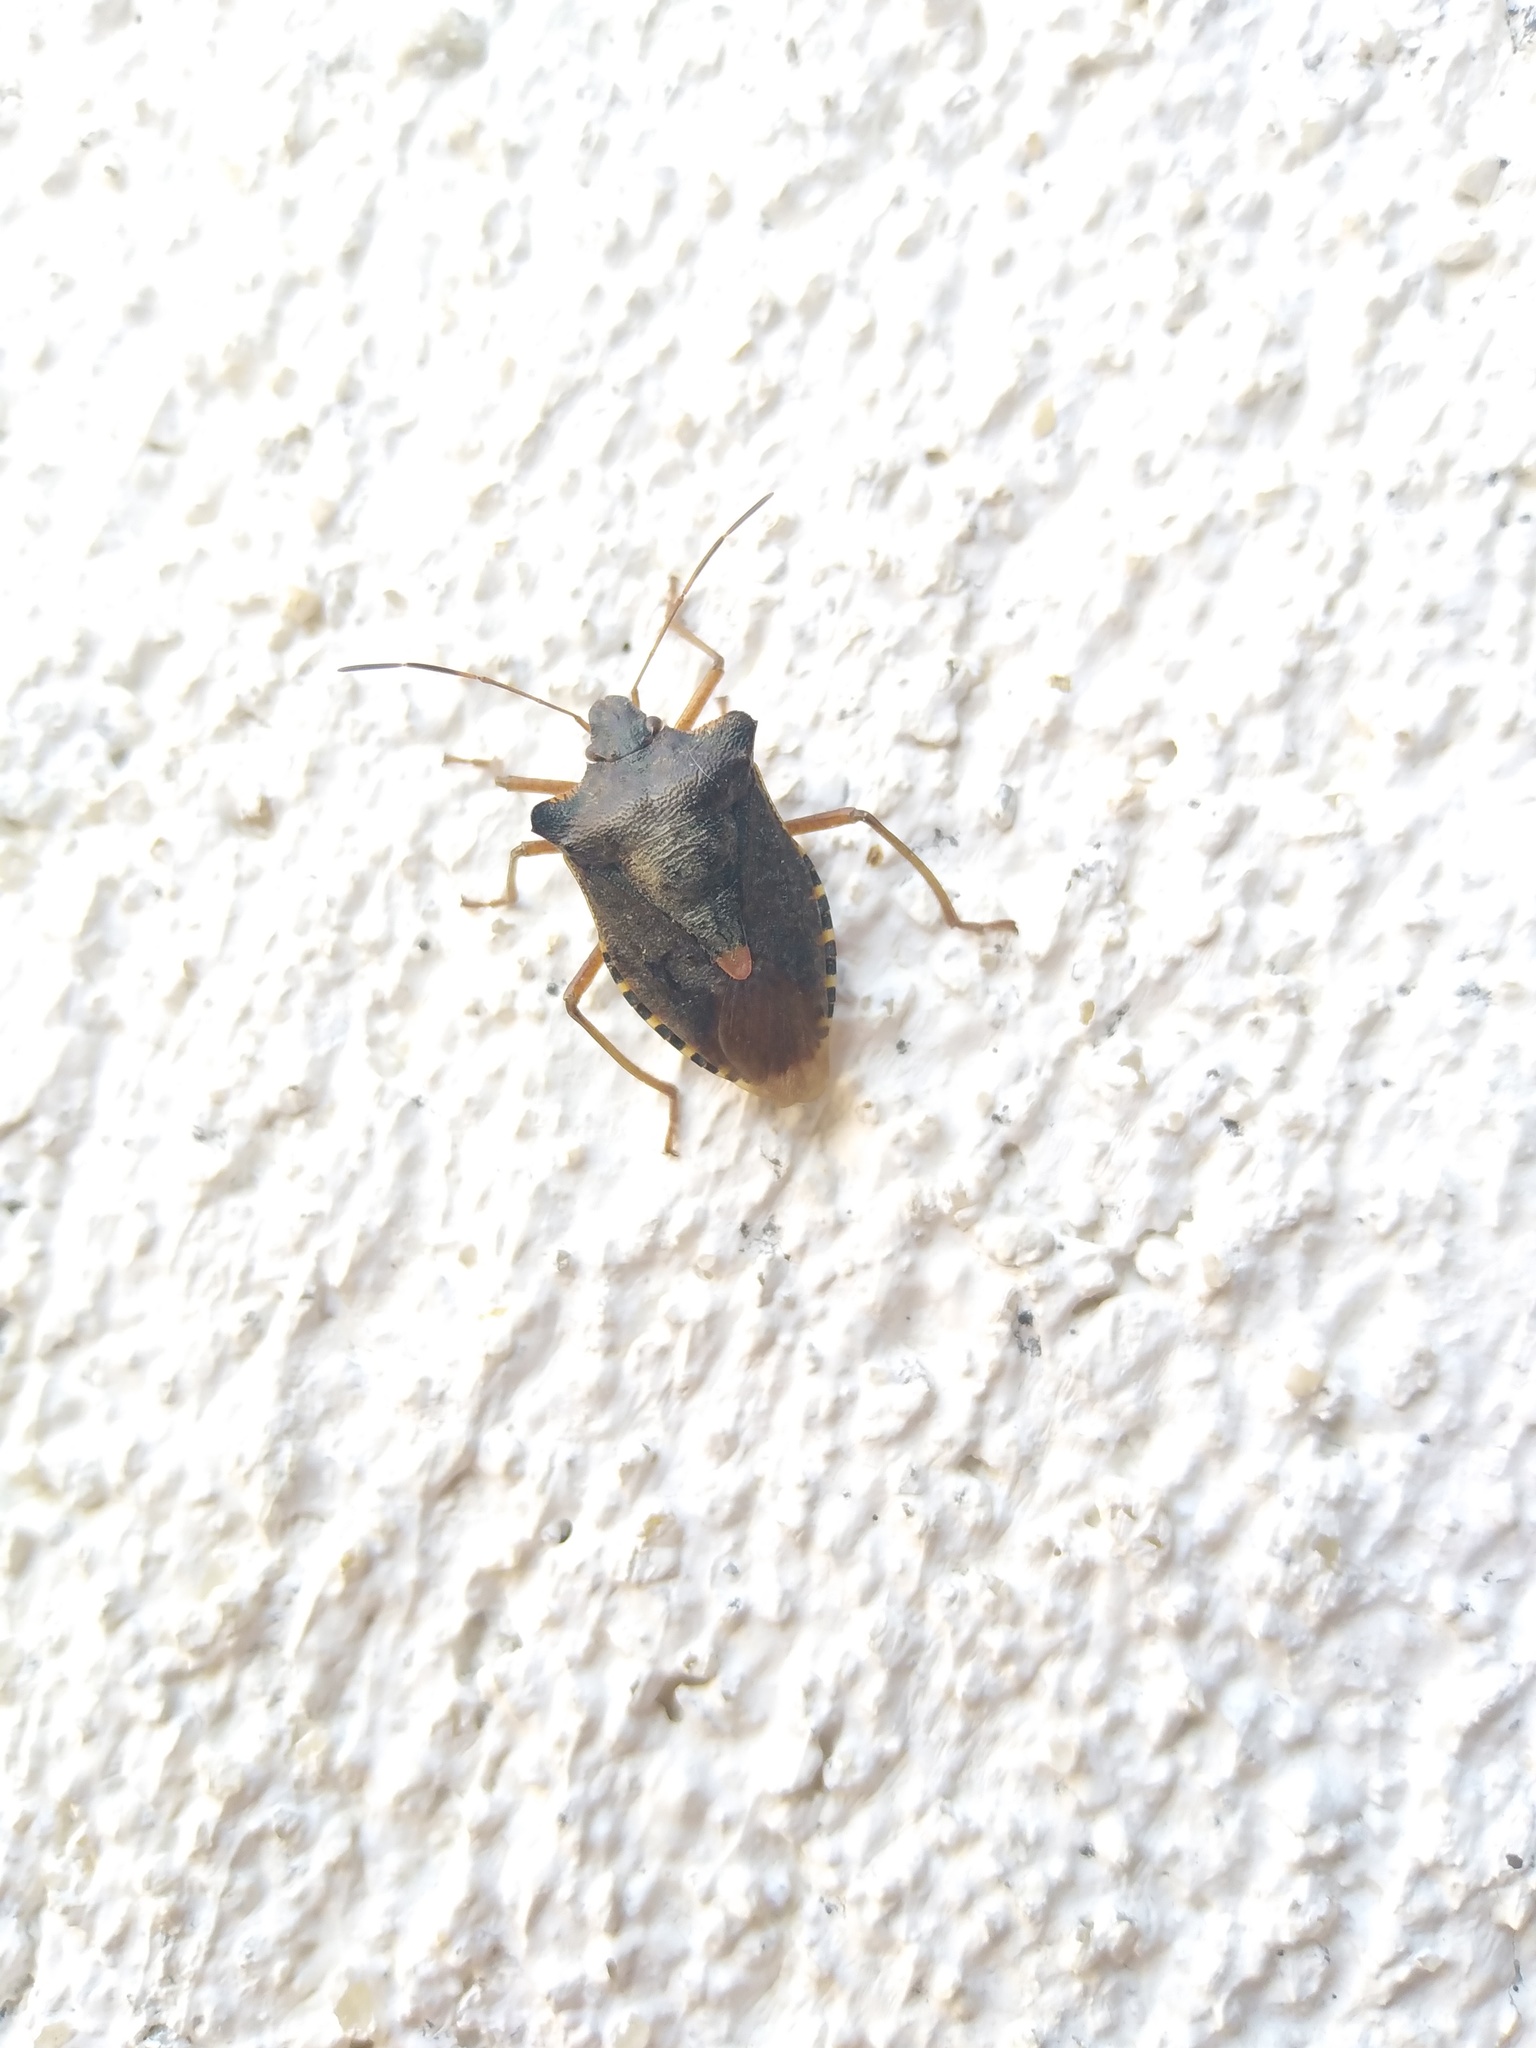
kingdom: Animalia
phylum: Arthropoda
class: Insecta
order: Hemiptera
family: Pentatomidae
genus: Pentatoma
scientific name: Pentatoma rufipes
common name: Forest bug
